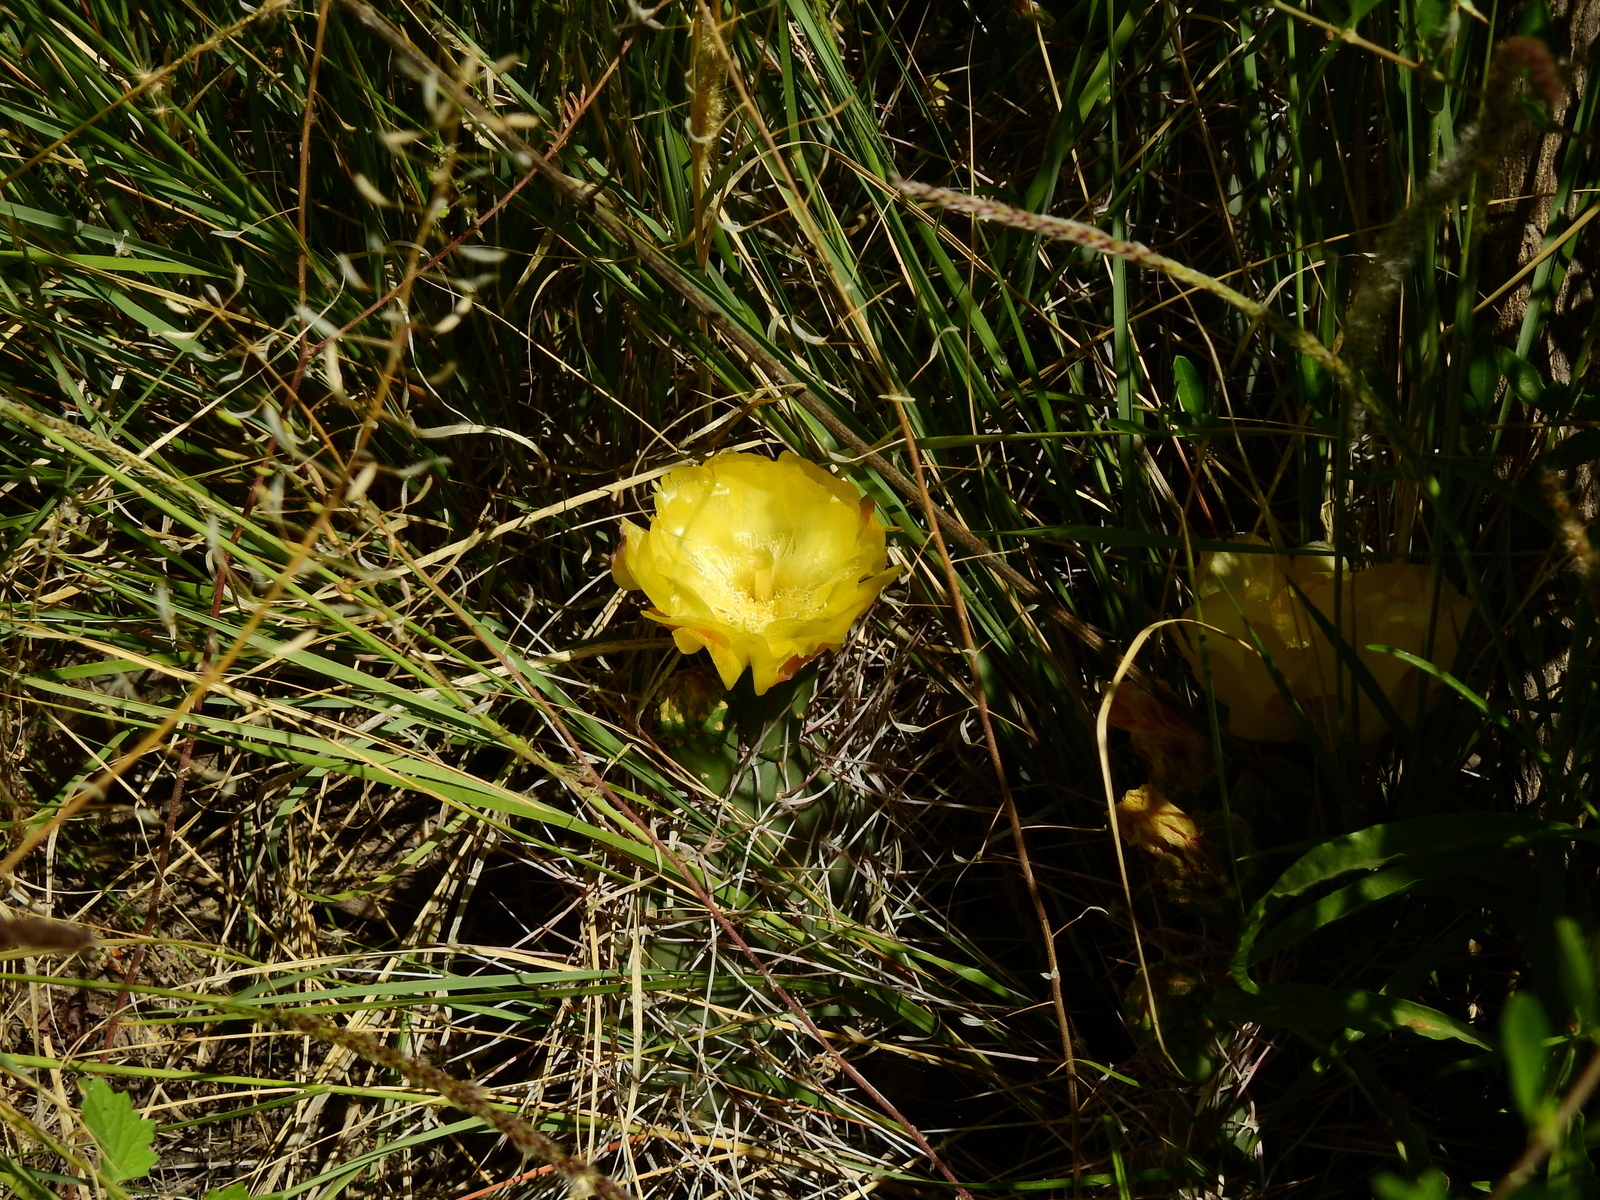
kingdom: Plantae
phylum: Tracheophyta
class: Magnoliopsida
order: Caryophyllales
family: Cactaceae
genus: Opuntia
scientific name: Opuntia sulphurea
